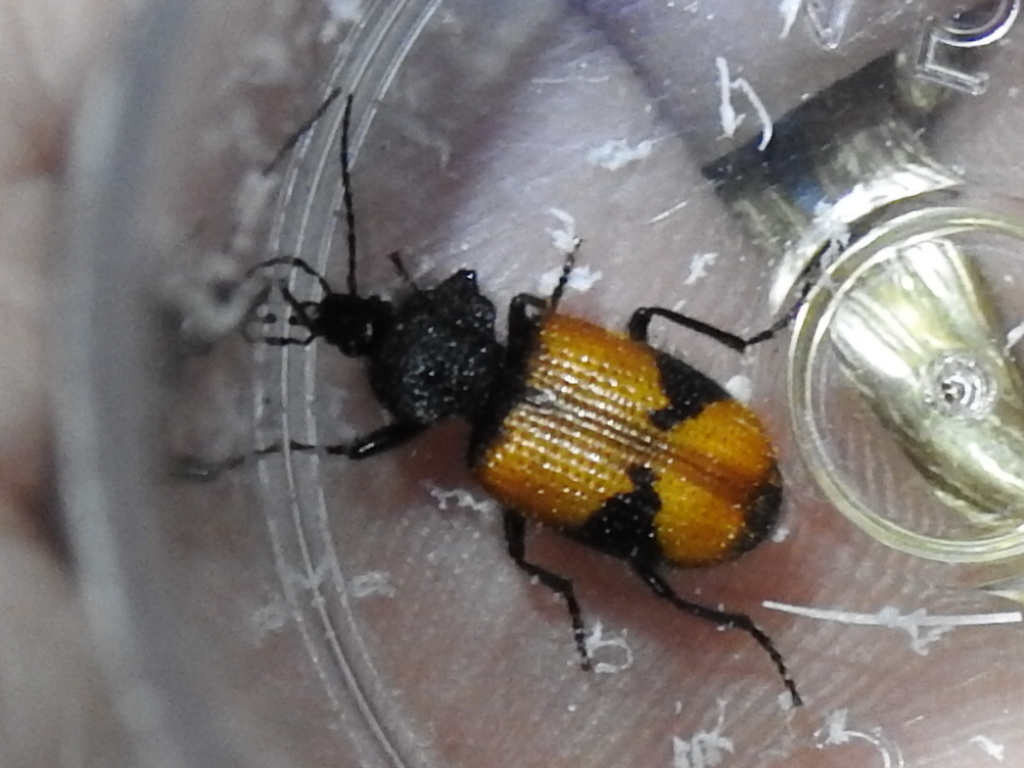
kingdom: Animalia
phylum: Arthropoda
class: Insecta
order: Coleoptera
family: Carabidae
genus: Panagaeus
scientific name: Panagaeus sallei
